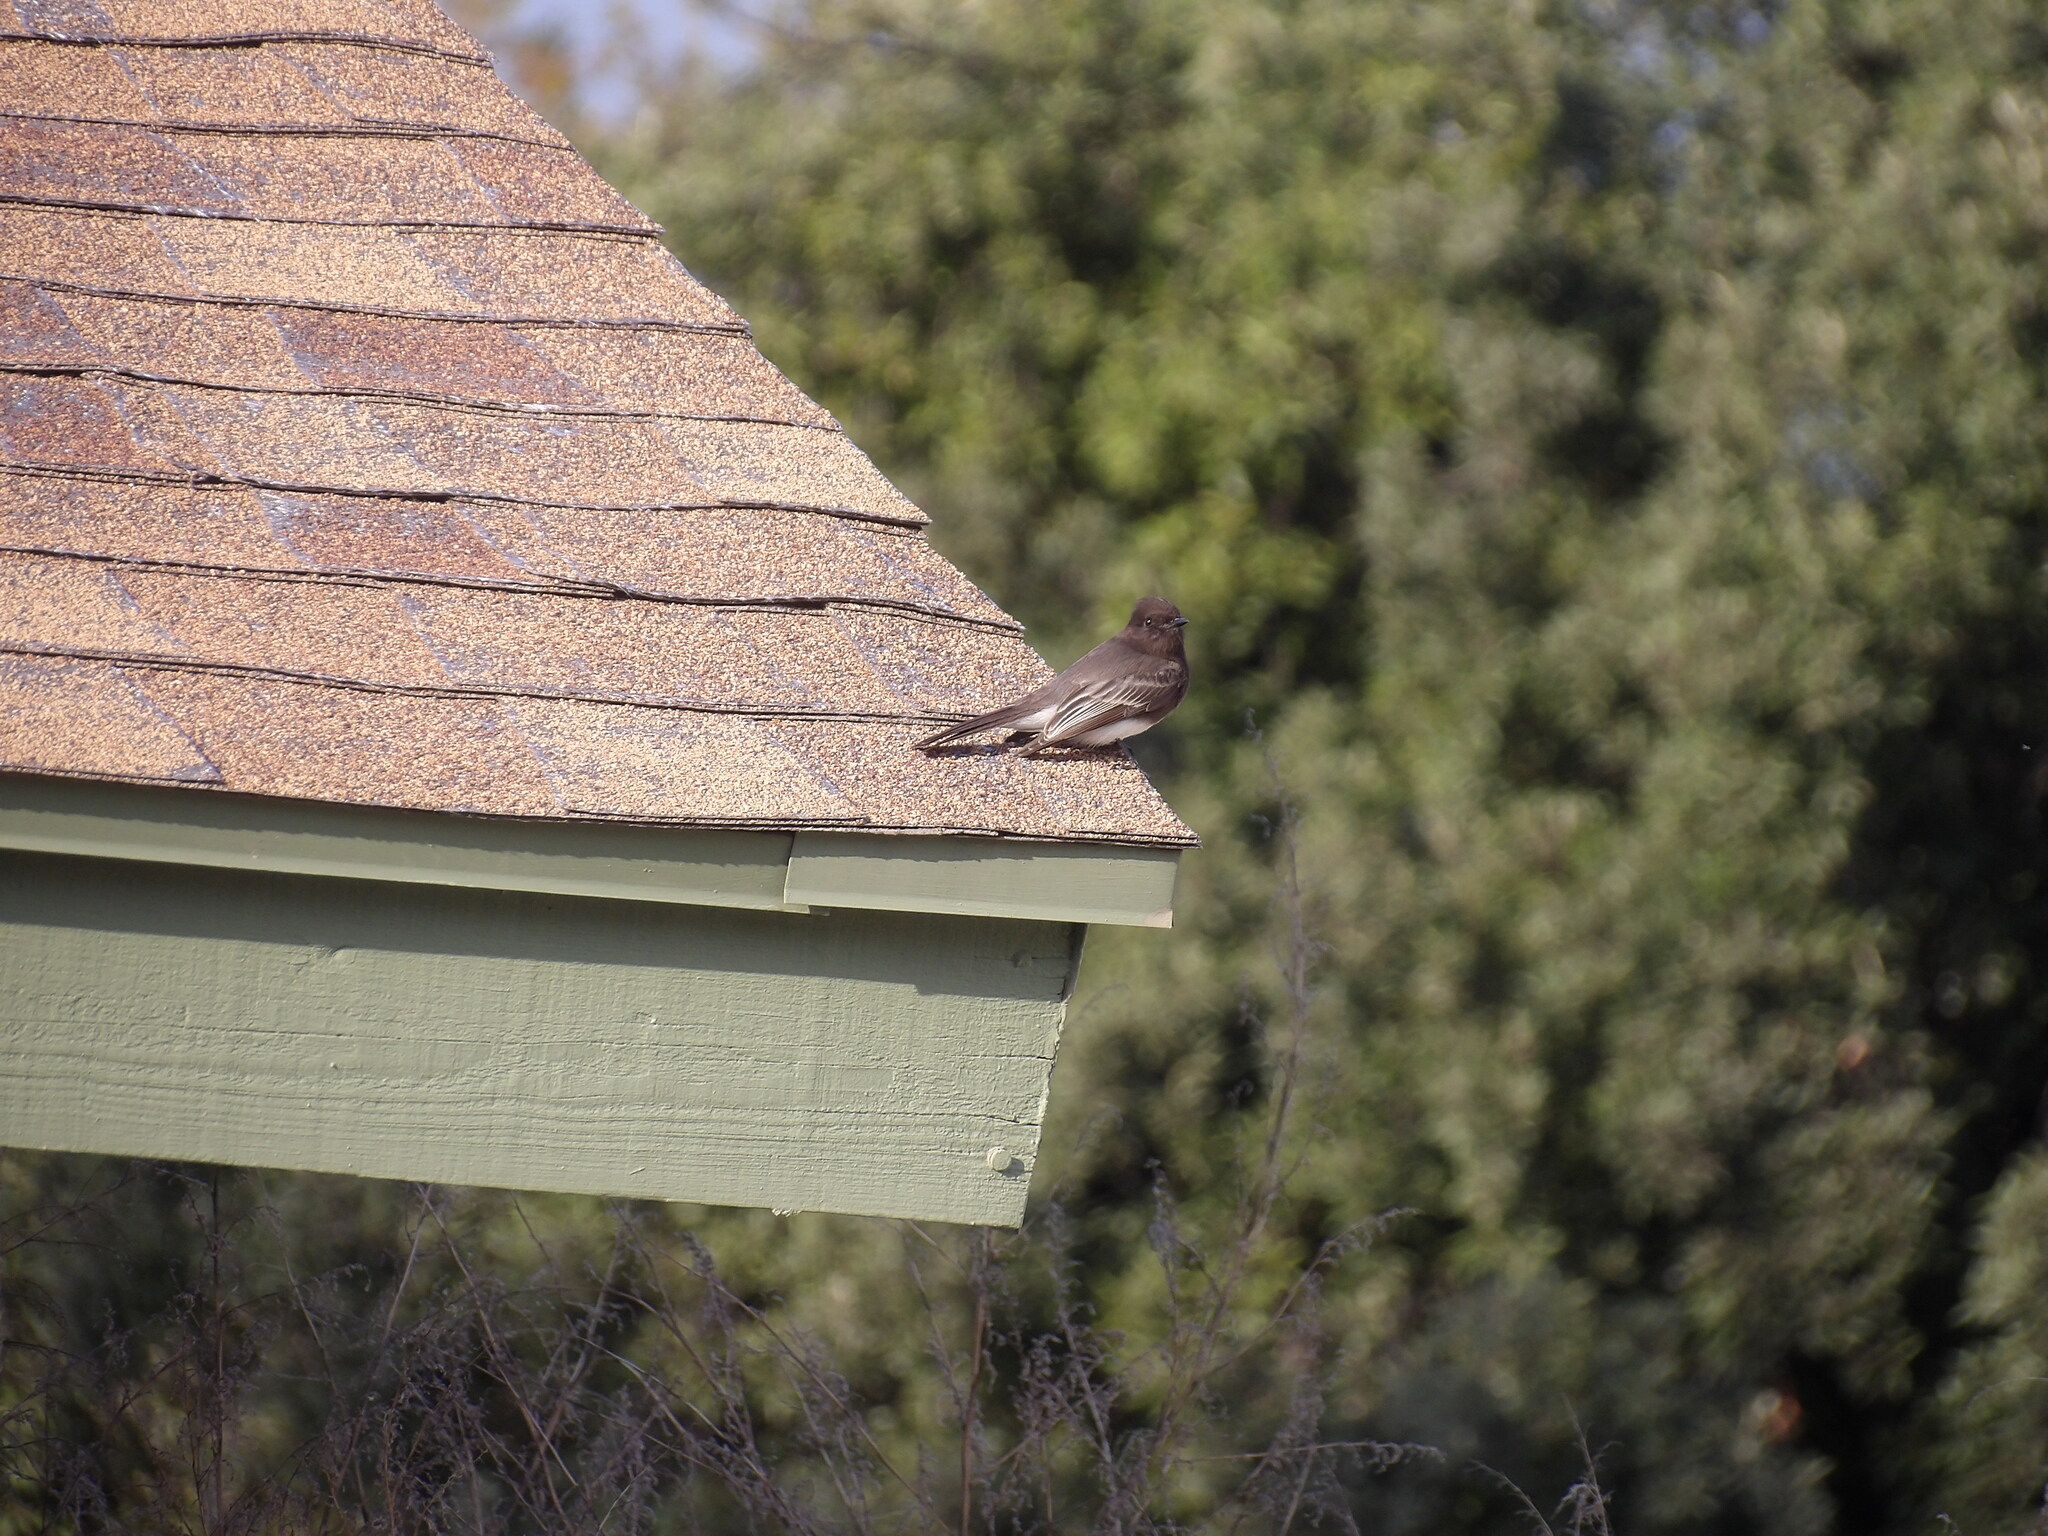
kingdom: Animalia
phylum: Chordata
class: Aves
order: Passeriformes
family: Tyrannidae
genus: Sayornis
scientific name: Sayornis nigricans
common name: Black phoebe
